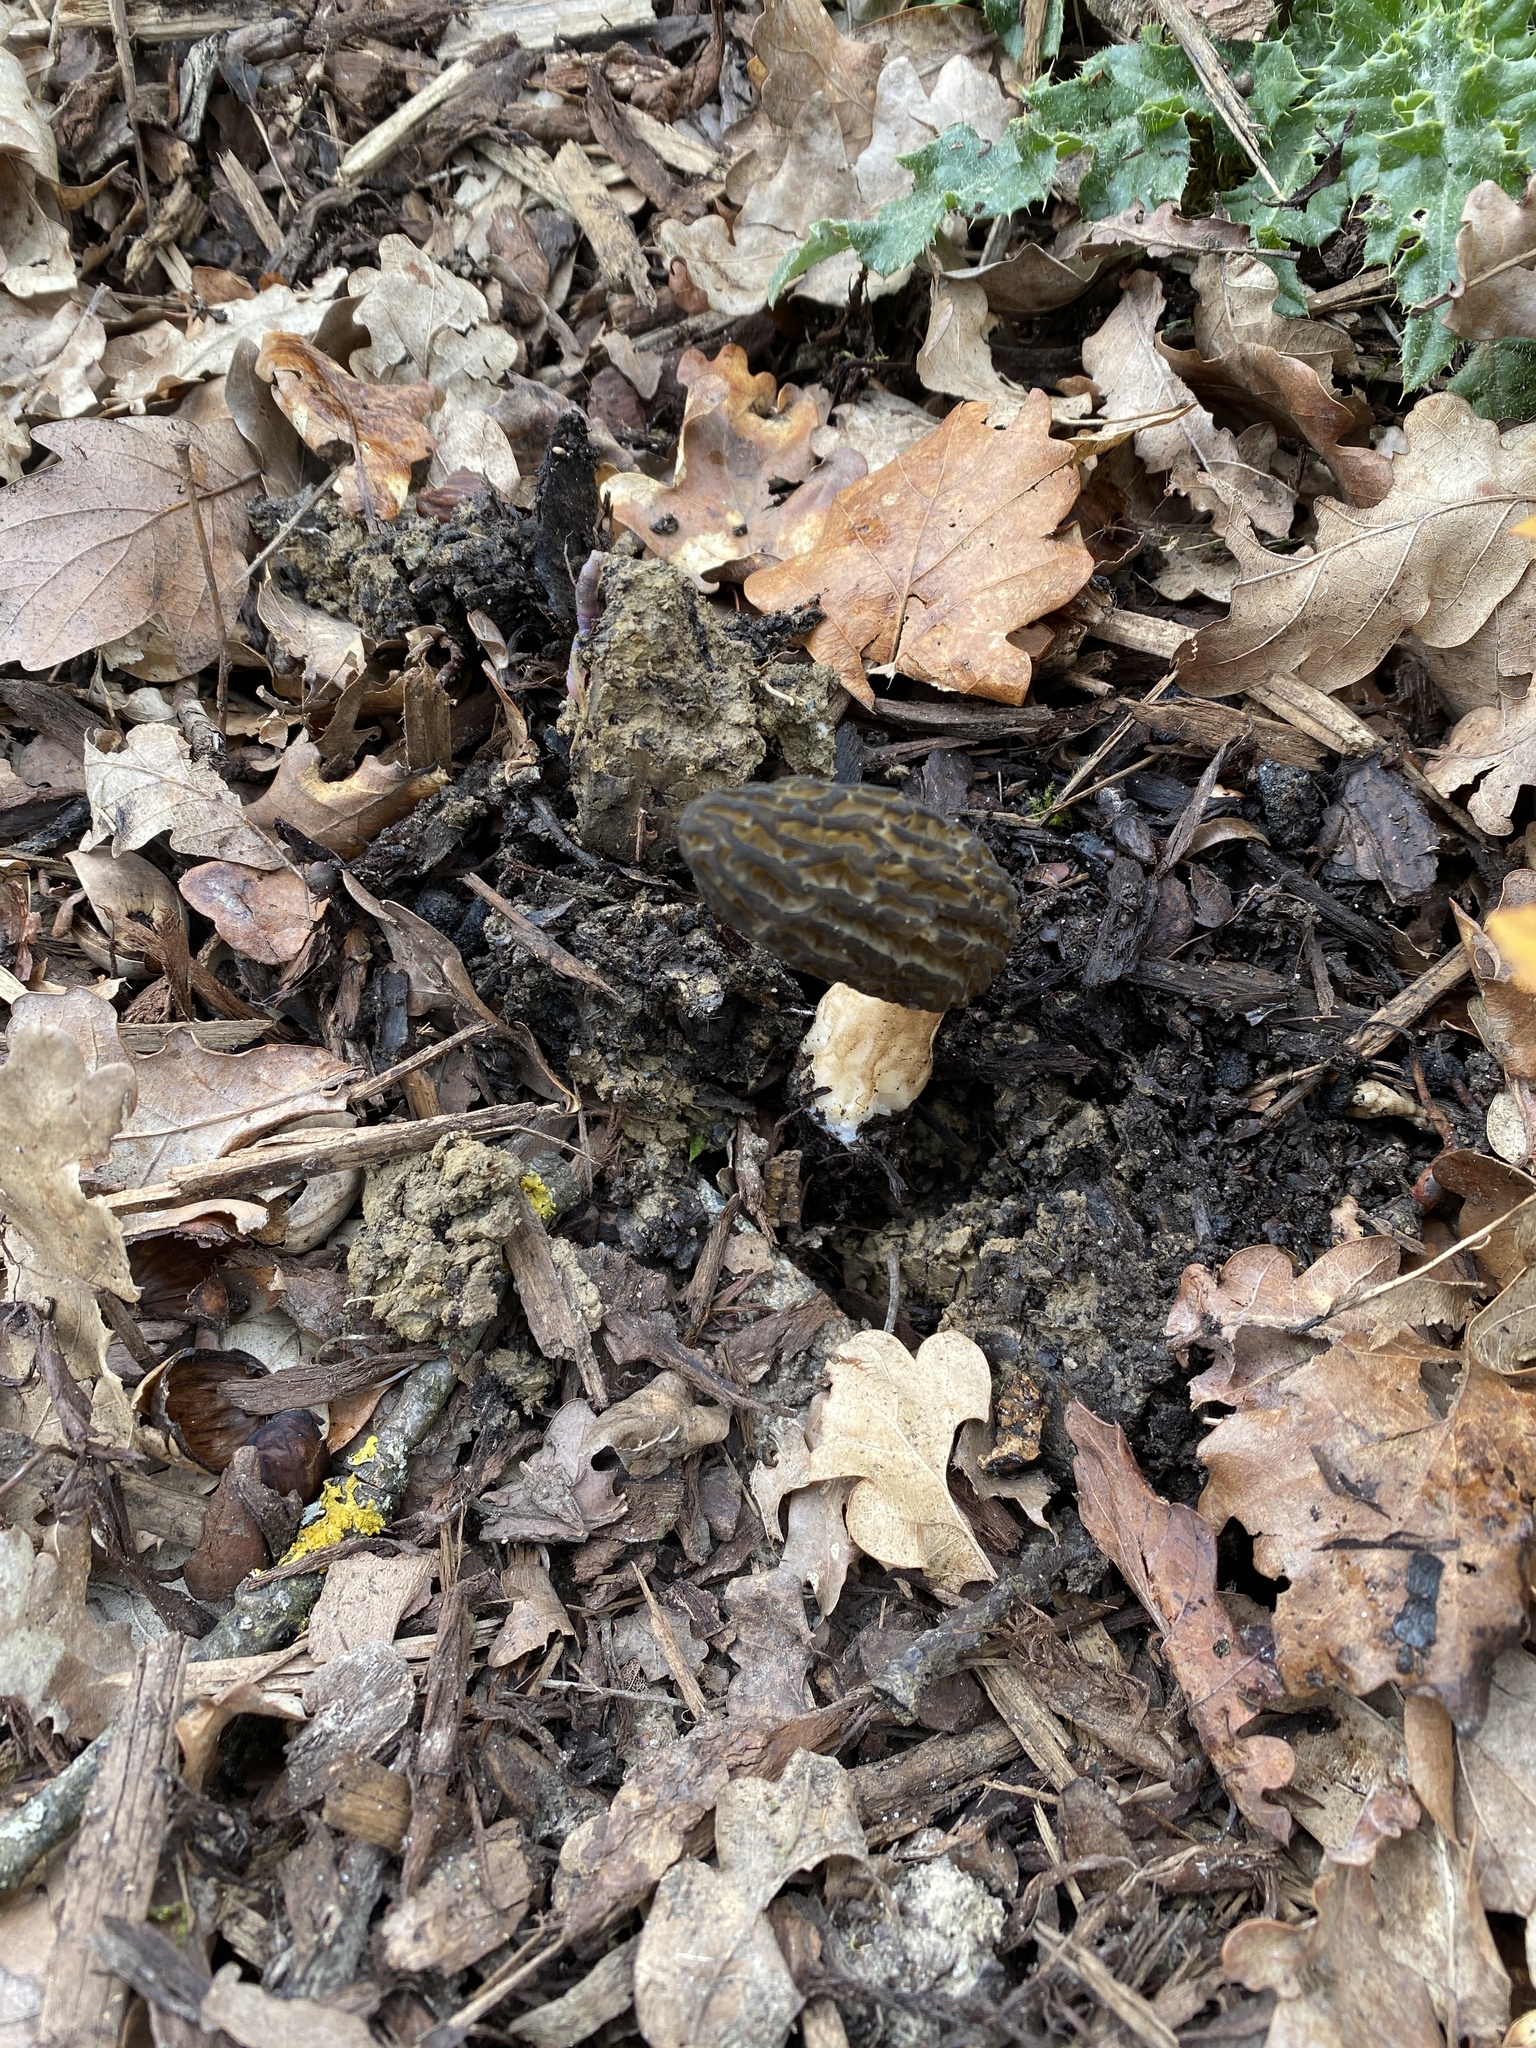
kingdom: Fungi
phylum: Ascomycota
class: Pezizomycetes
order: Pezizales
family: Morchellaceae
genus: Morchella
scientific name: Morchella importuna
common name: Landscaping black morel
